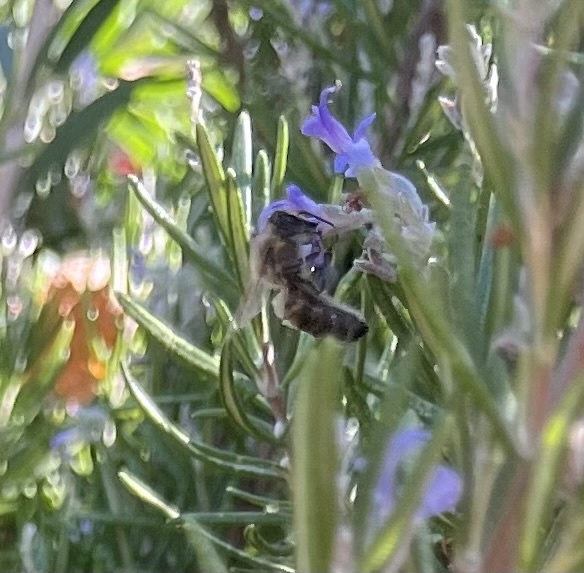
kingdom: Animalia
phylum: Arthropoda
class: Insecta
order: Hymenoptera
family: Apidae
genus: Apis
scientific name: Apis mellifera
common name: Honey bee
